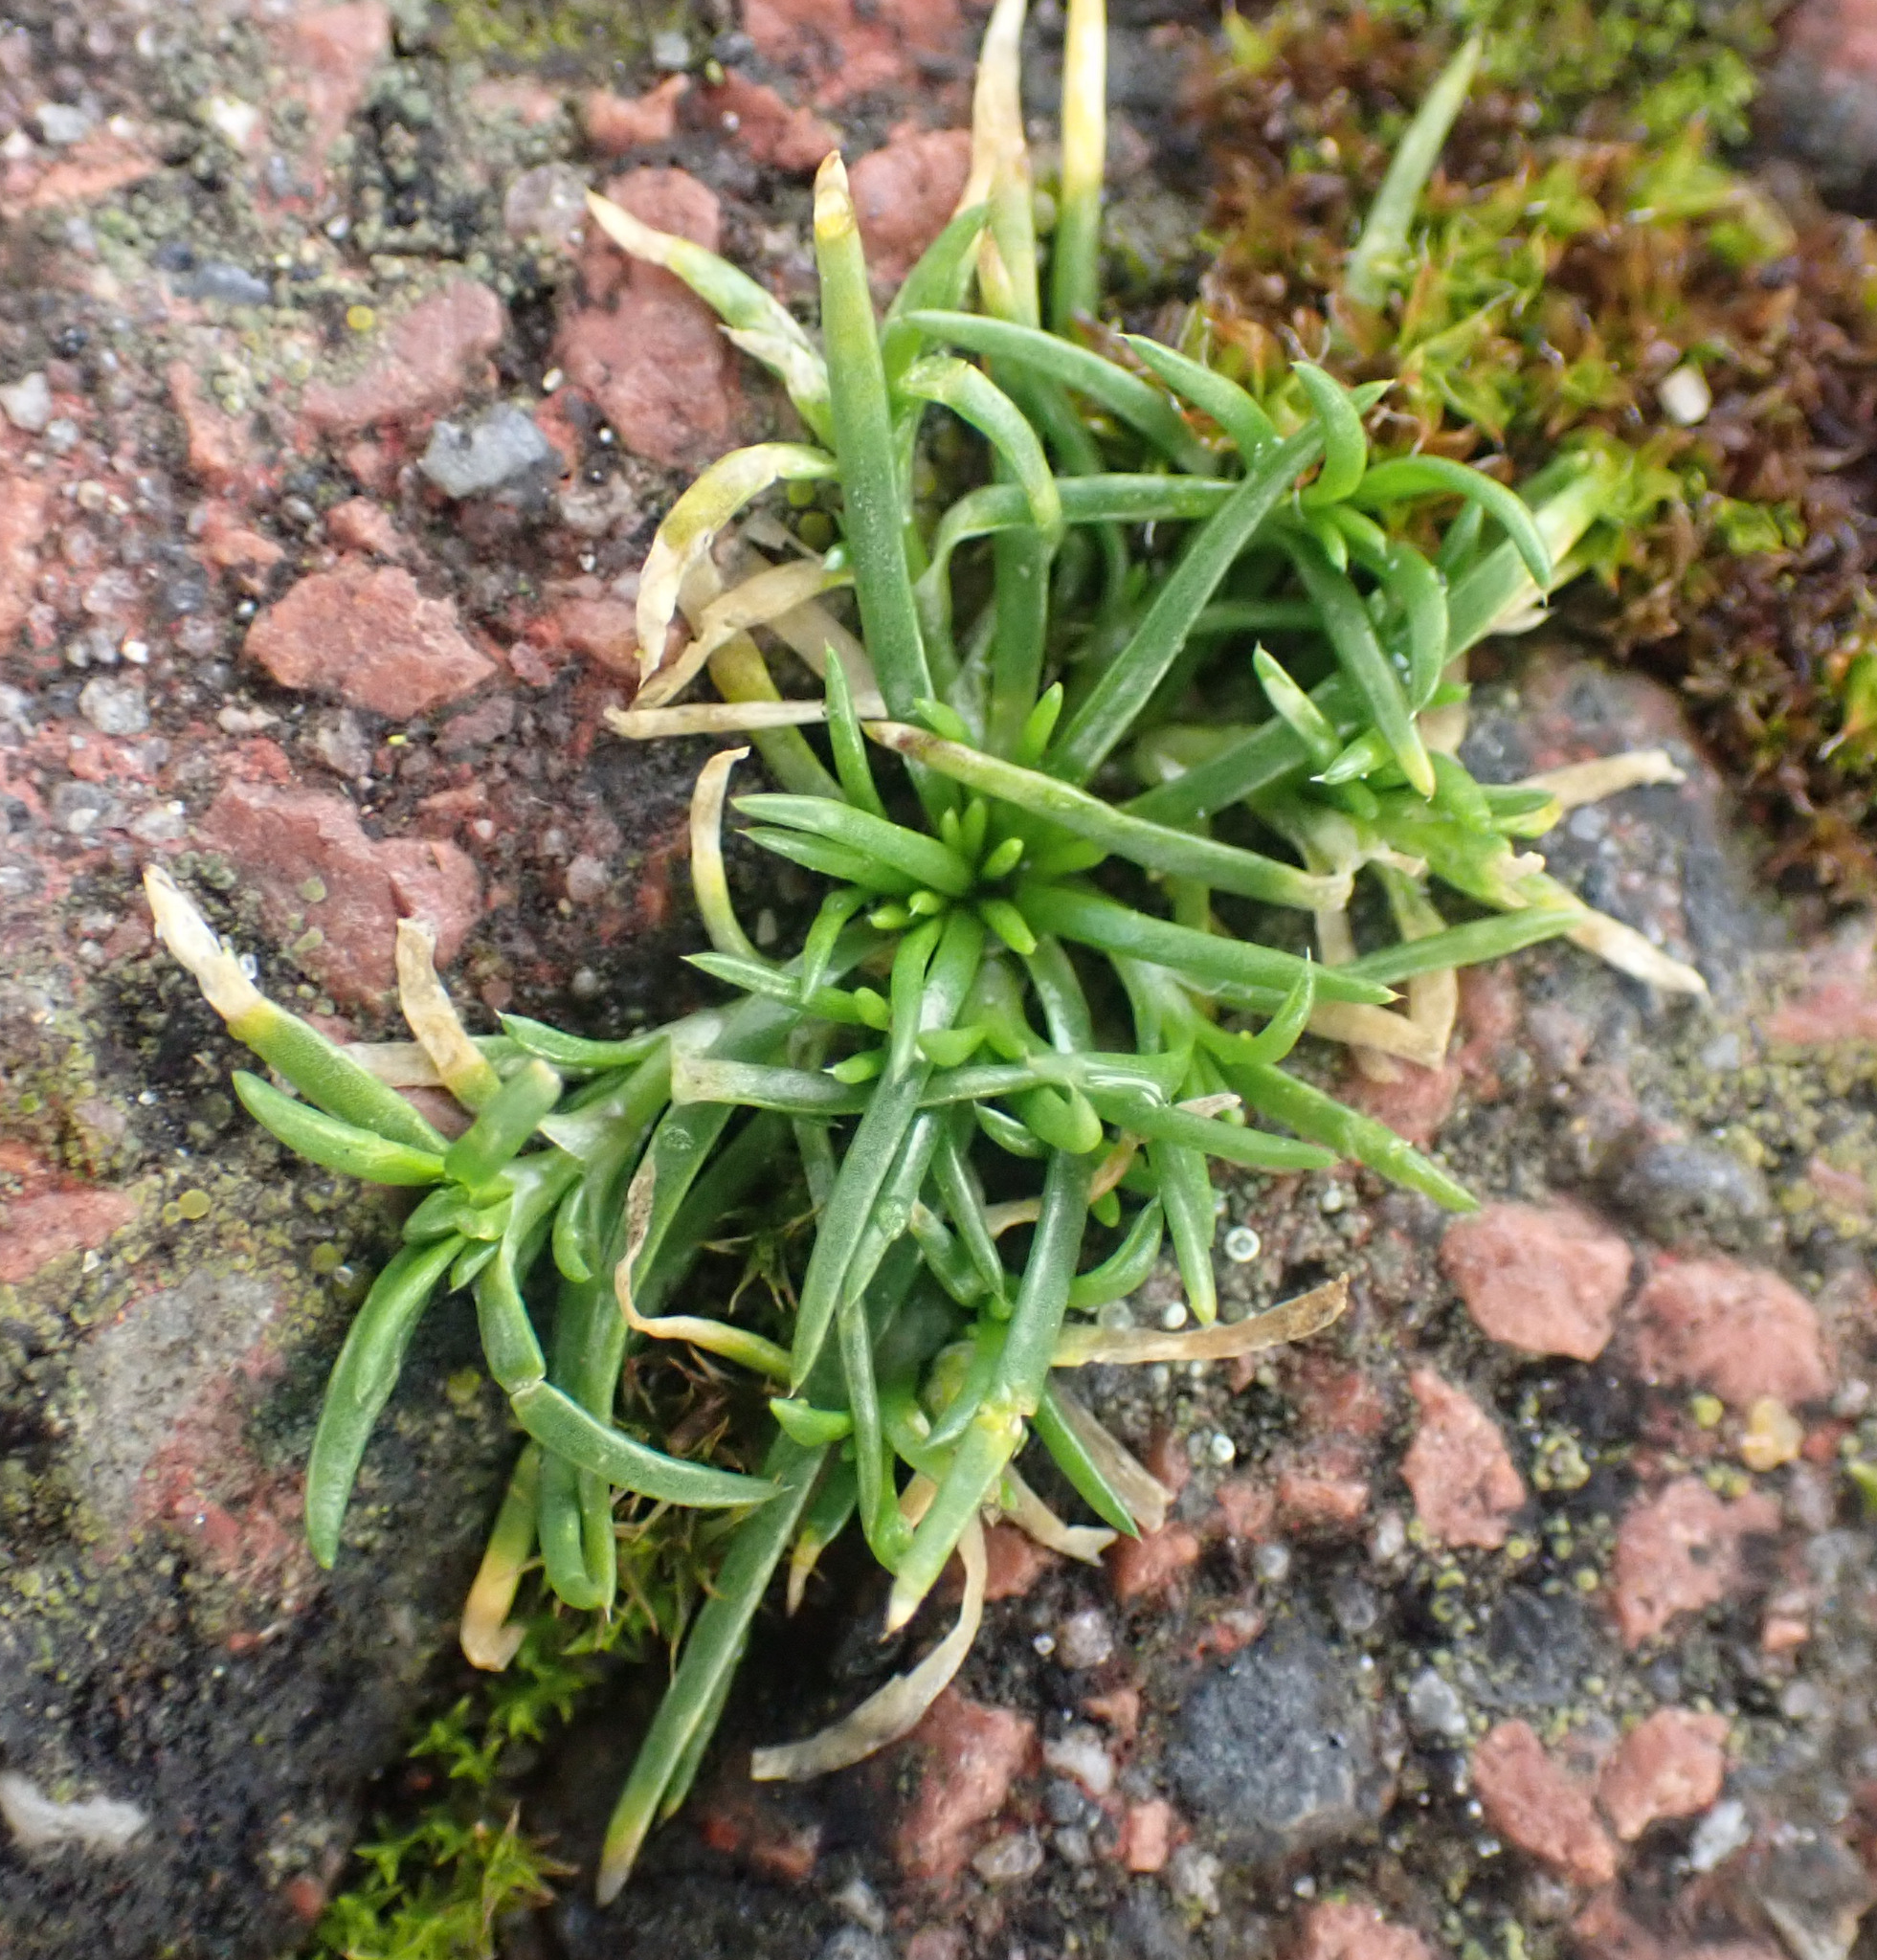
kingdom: Plantae
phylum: Tracheophyta
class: Magnoliopsida
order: Caryophyllales
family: Caryophyllaceae
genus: Sagina
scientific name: Sagina procumbens
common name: Procumbent pearlwort
